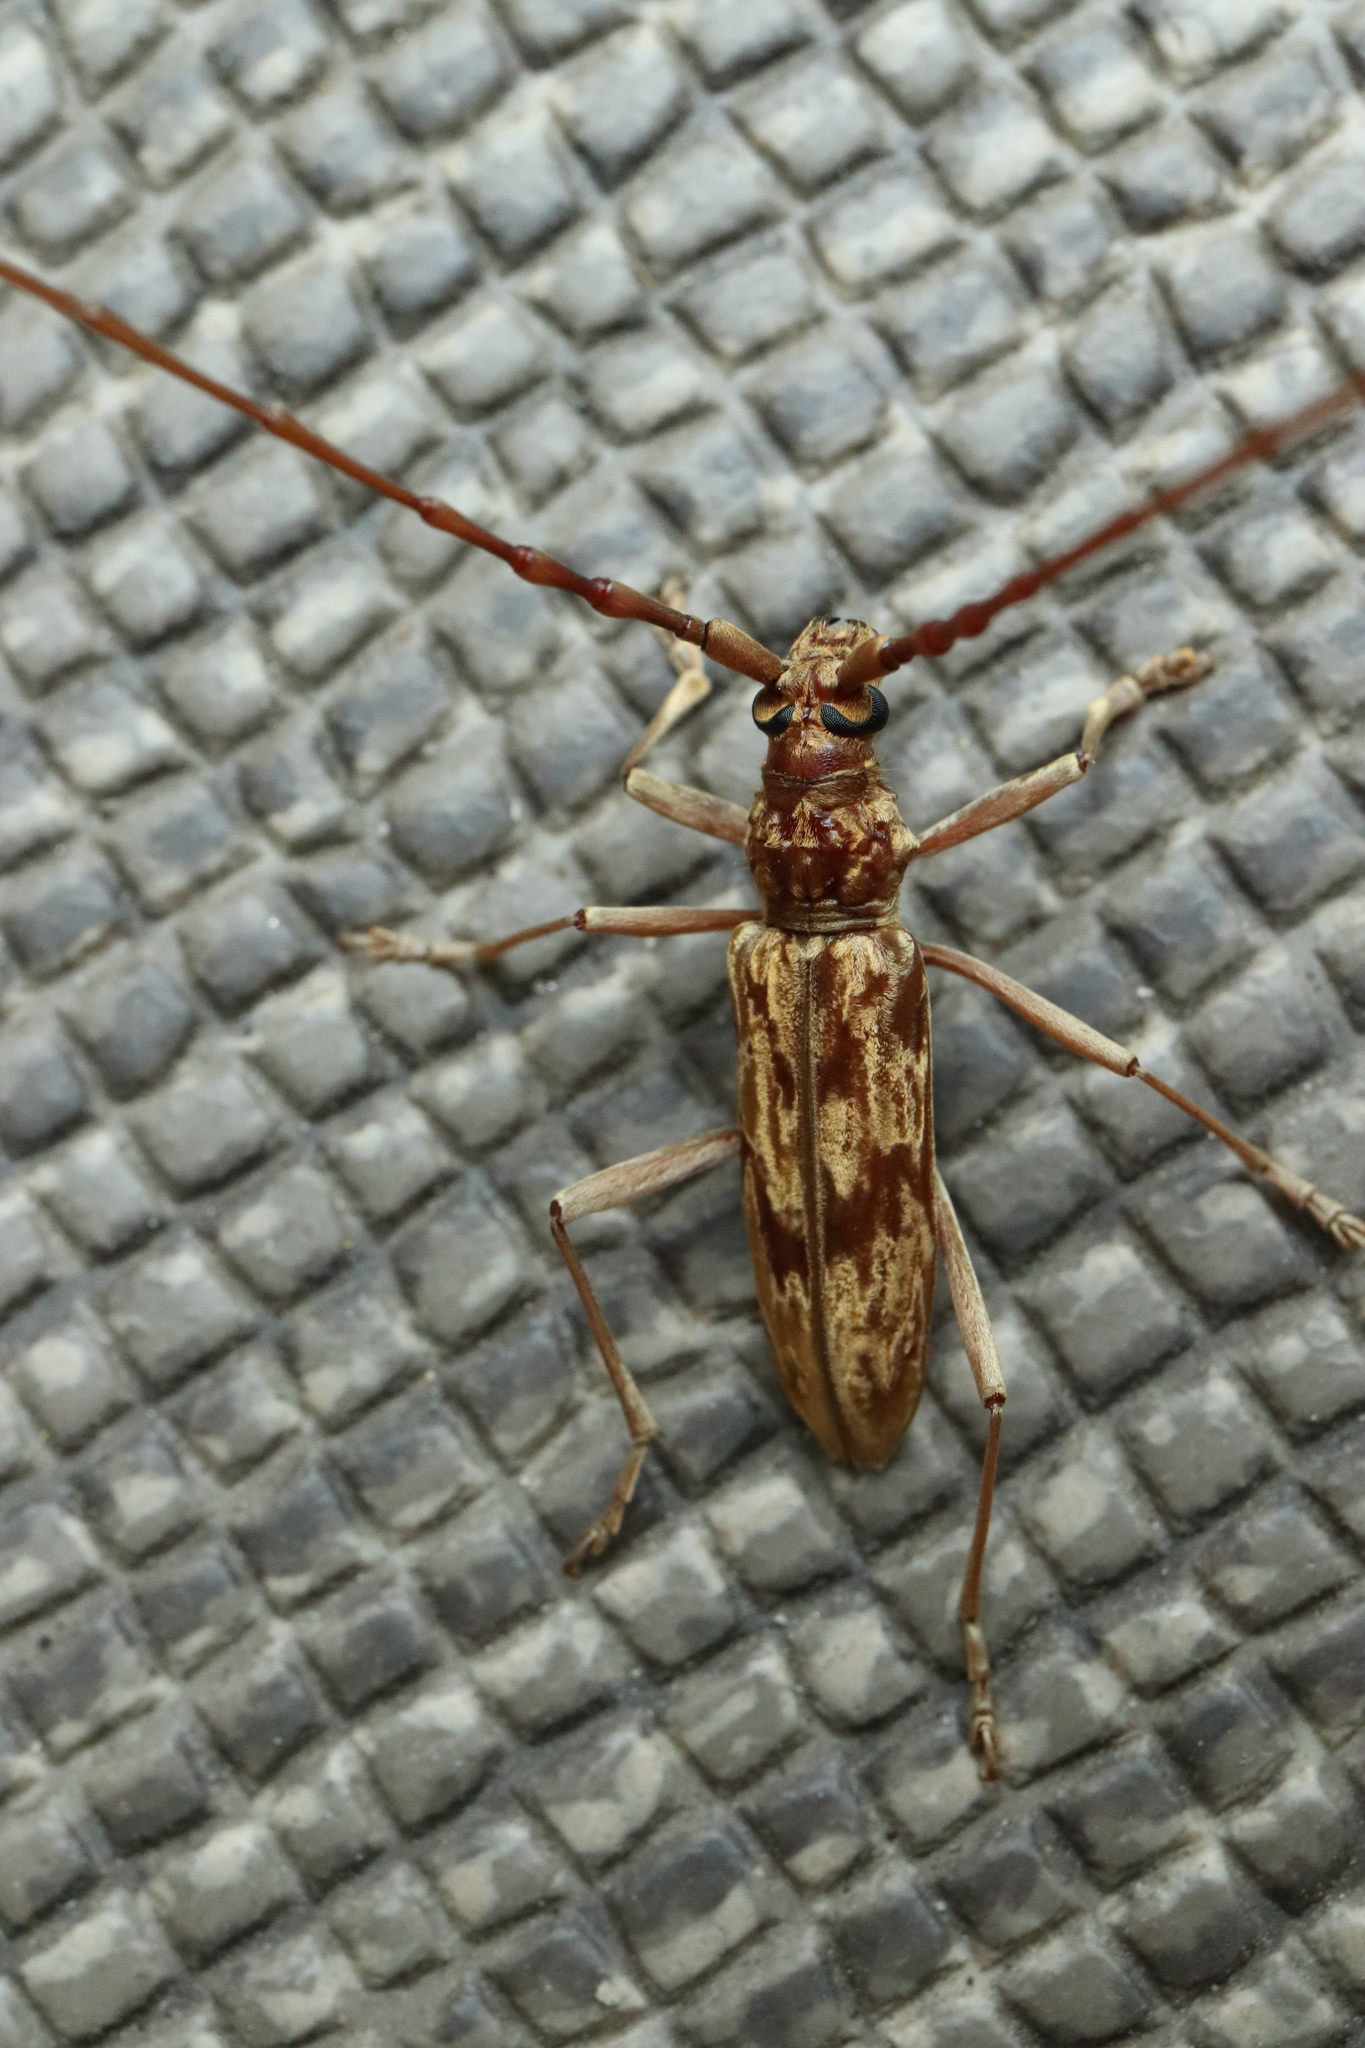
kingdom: Animalia
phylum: Arthropoda
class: Insecta
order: Coleoptera
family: Cerambycidae
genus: Aeolesthes
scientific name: Aeolesthes chrysothrix
